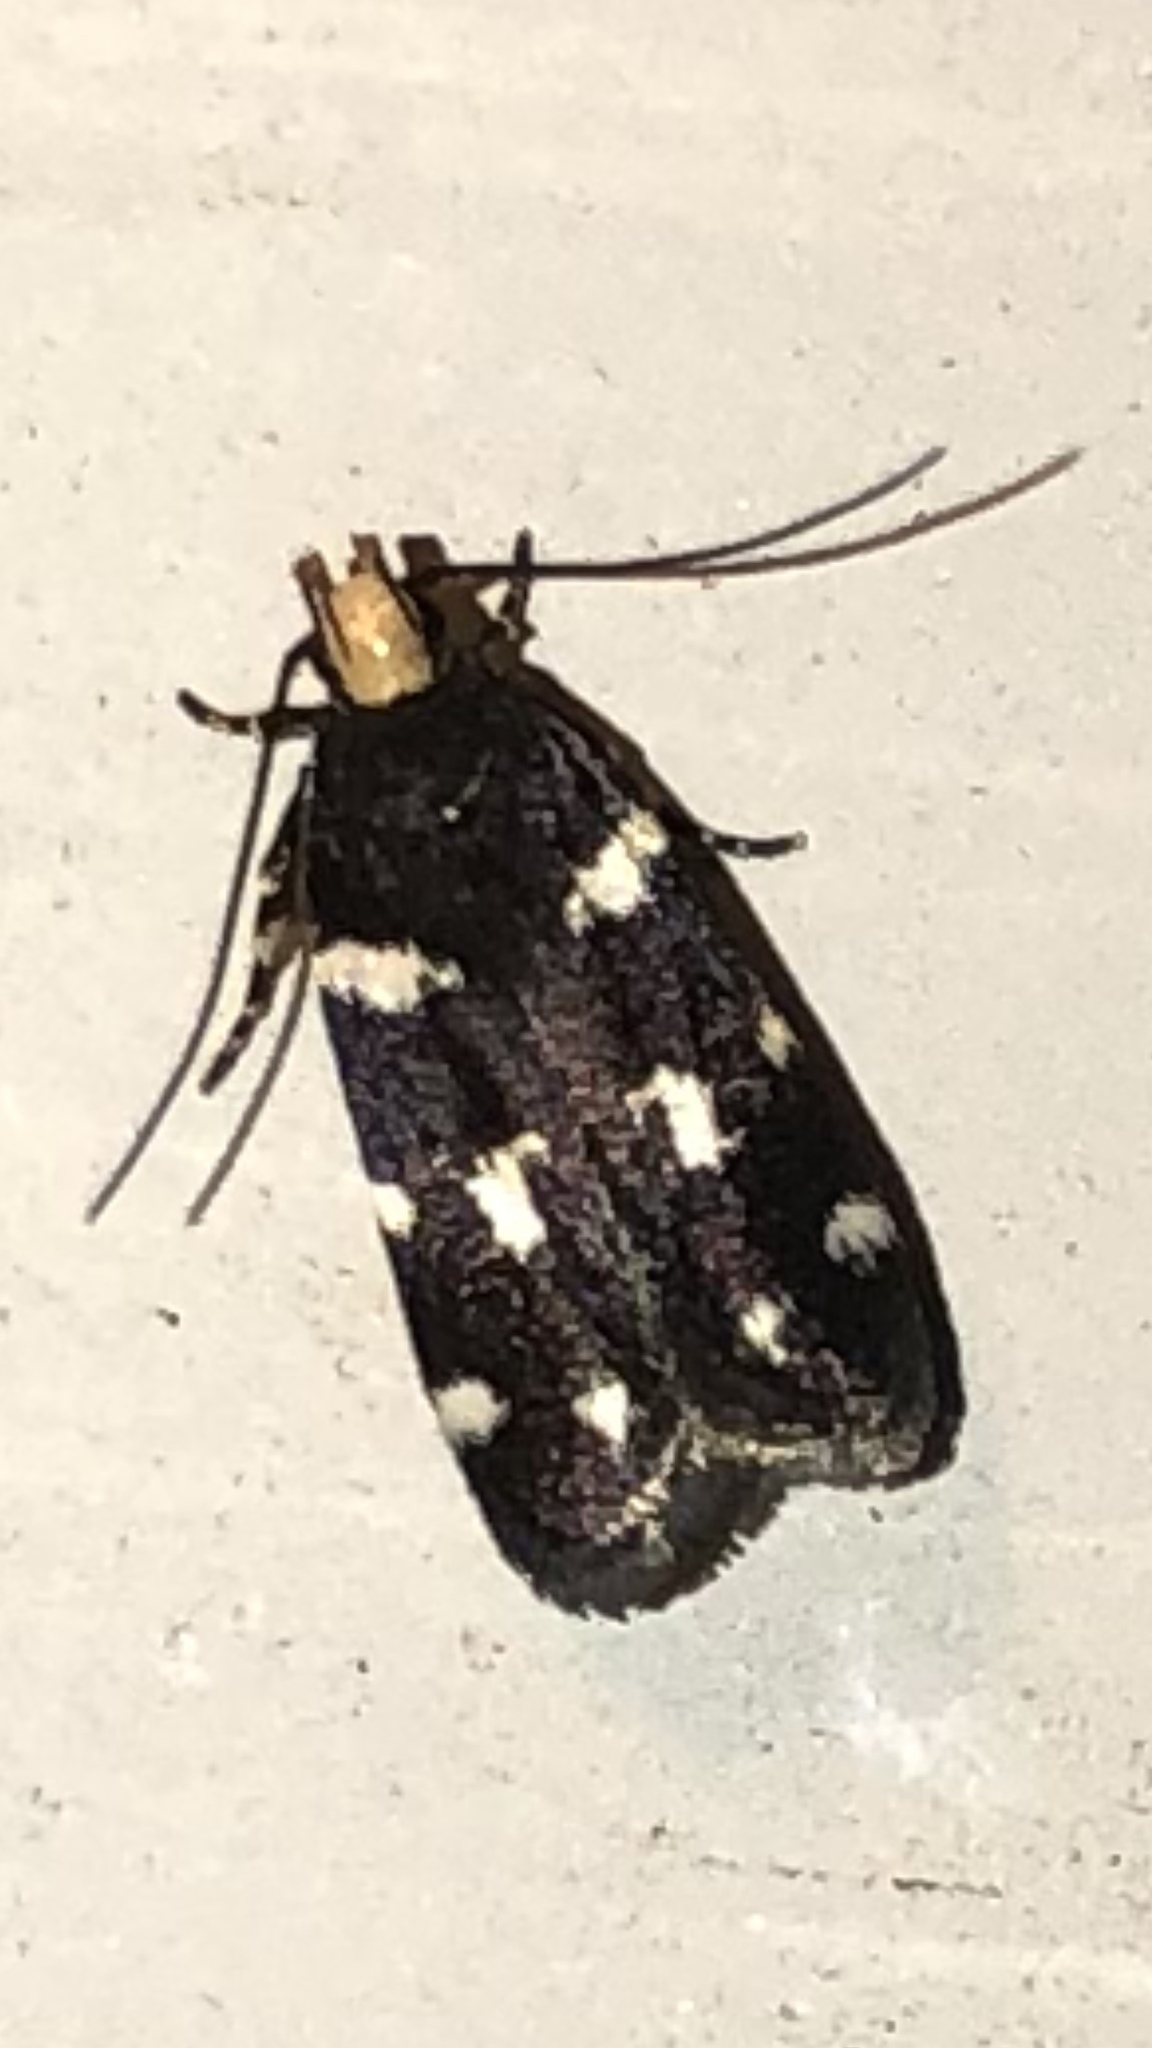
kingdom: Animalia
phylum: Arthropoda
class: Insecta
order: Lepidoptera
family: Gelechiidae
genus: Fascista
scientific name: Fascista quinella
